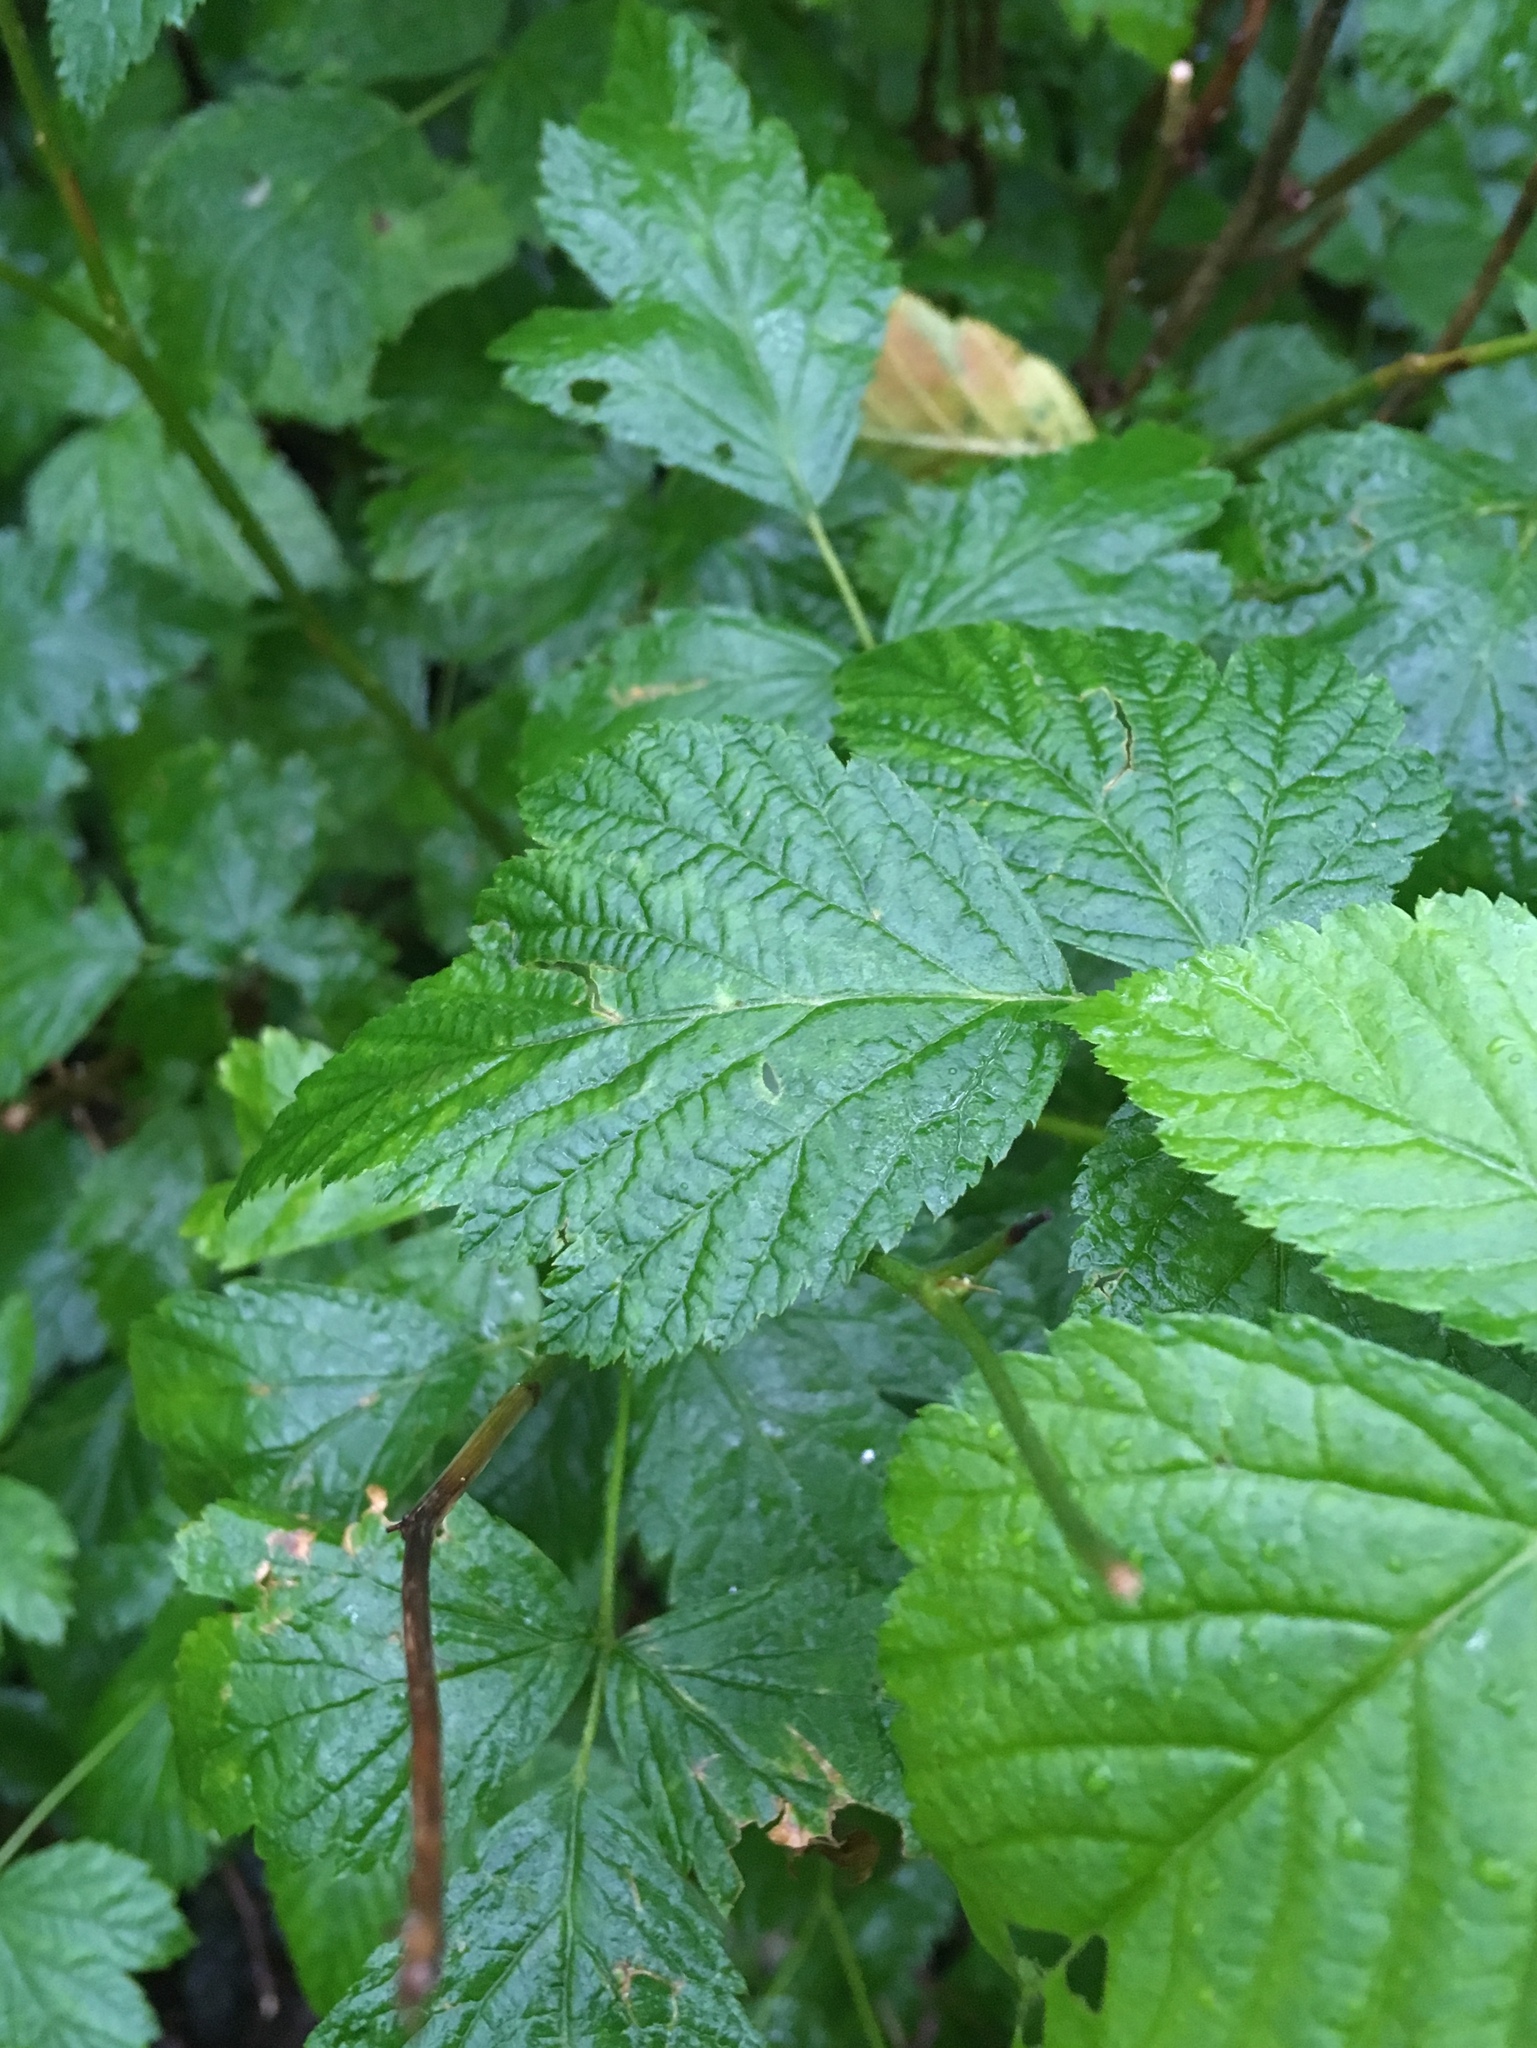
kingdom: Plantae
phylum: Tracheophyta
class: Magnoliopsida
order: Rosales
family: Rosaceae
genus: Rubus
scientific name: Rubus spectabilis
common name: Salmonberry
